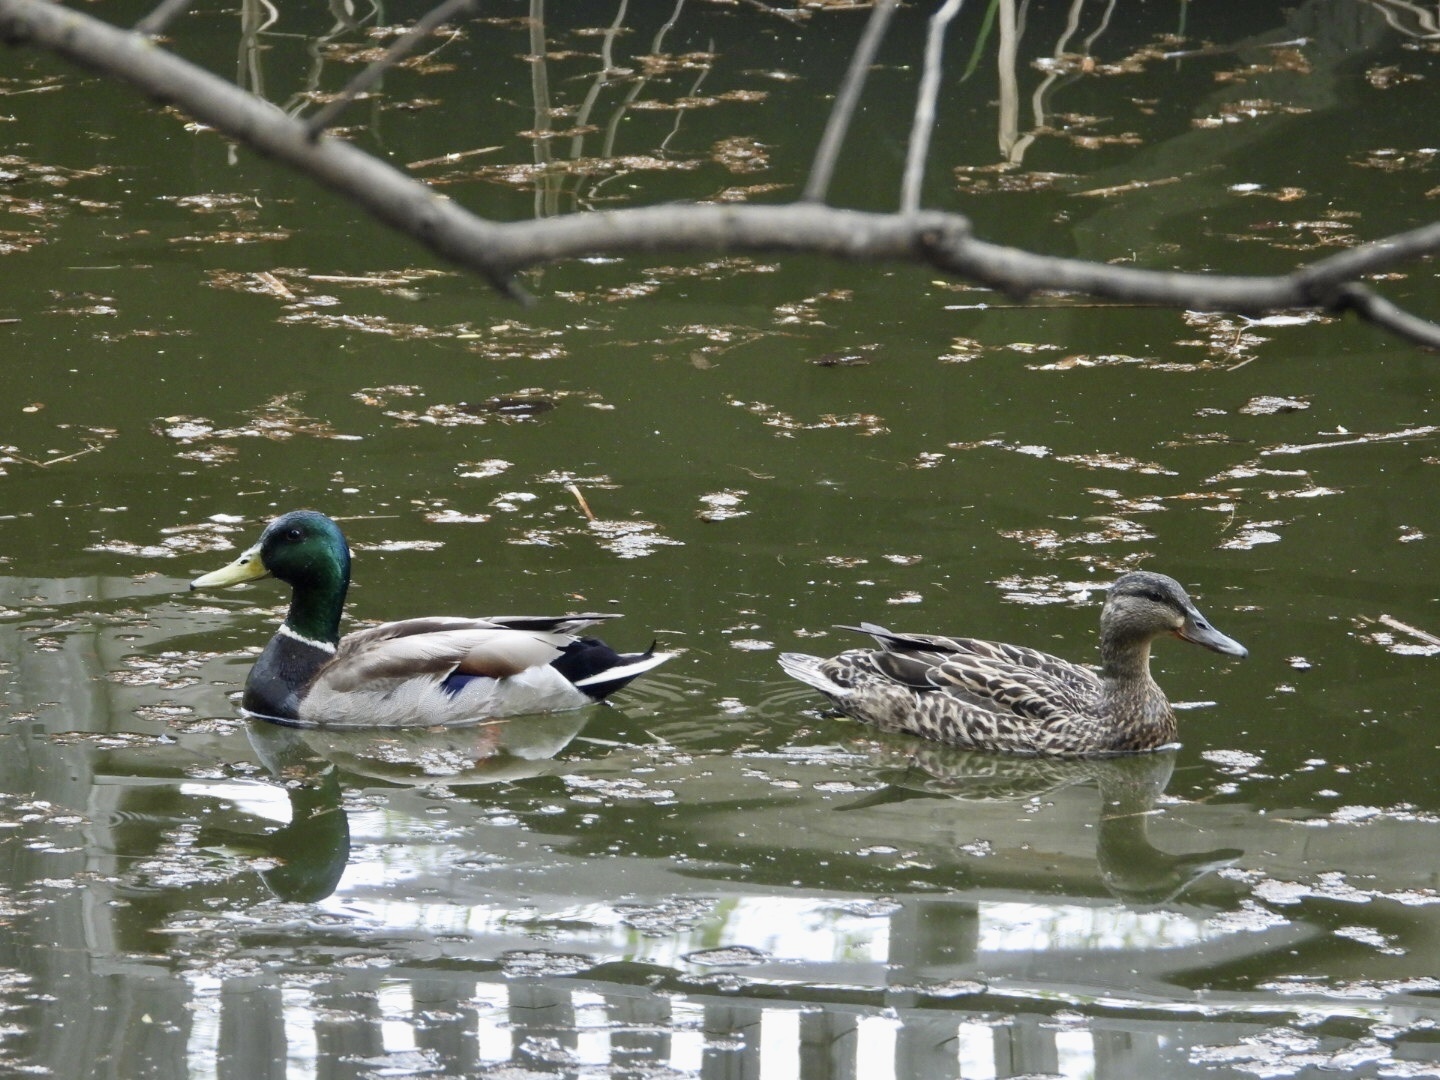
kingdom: Animalia
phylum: Chordata
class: Aves
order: Anseriformes
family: Anatidae
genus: Anas
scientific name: Anas platyrhynchos
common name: Mallard
